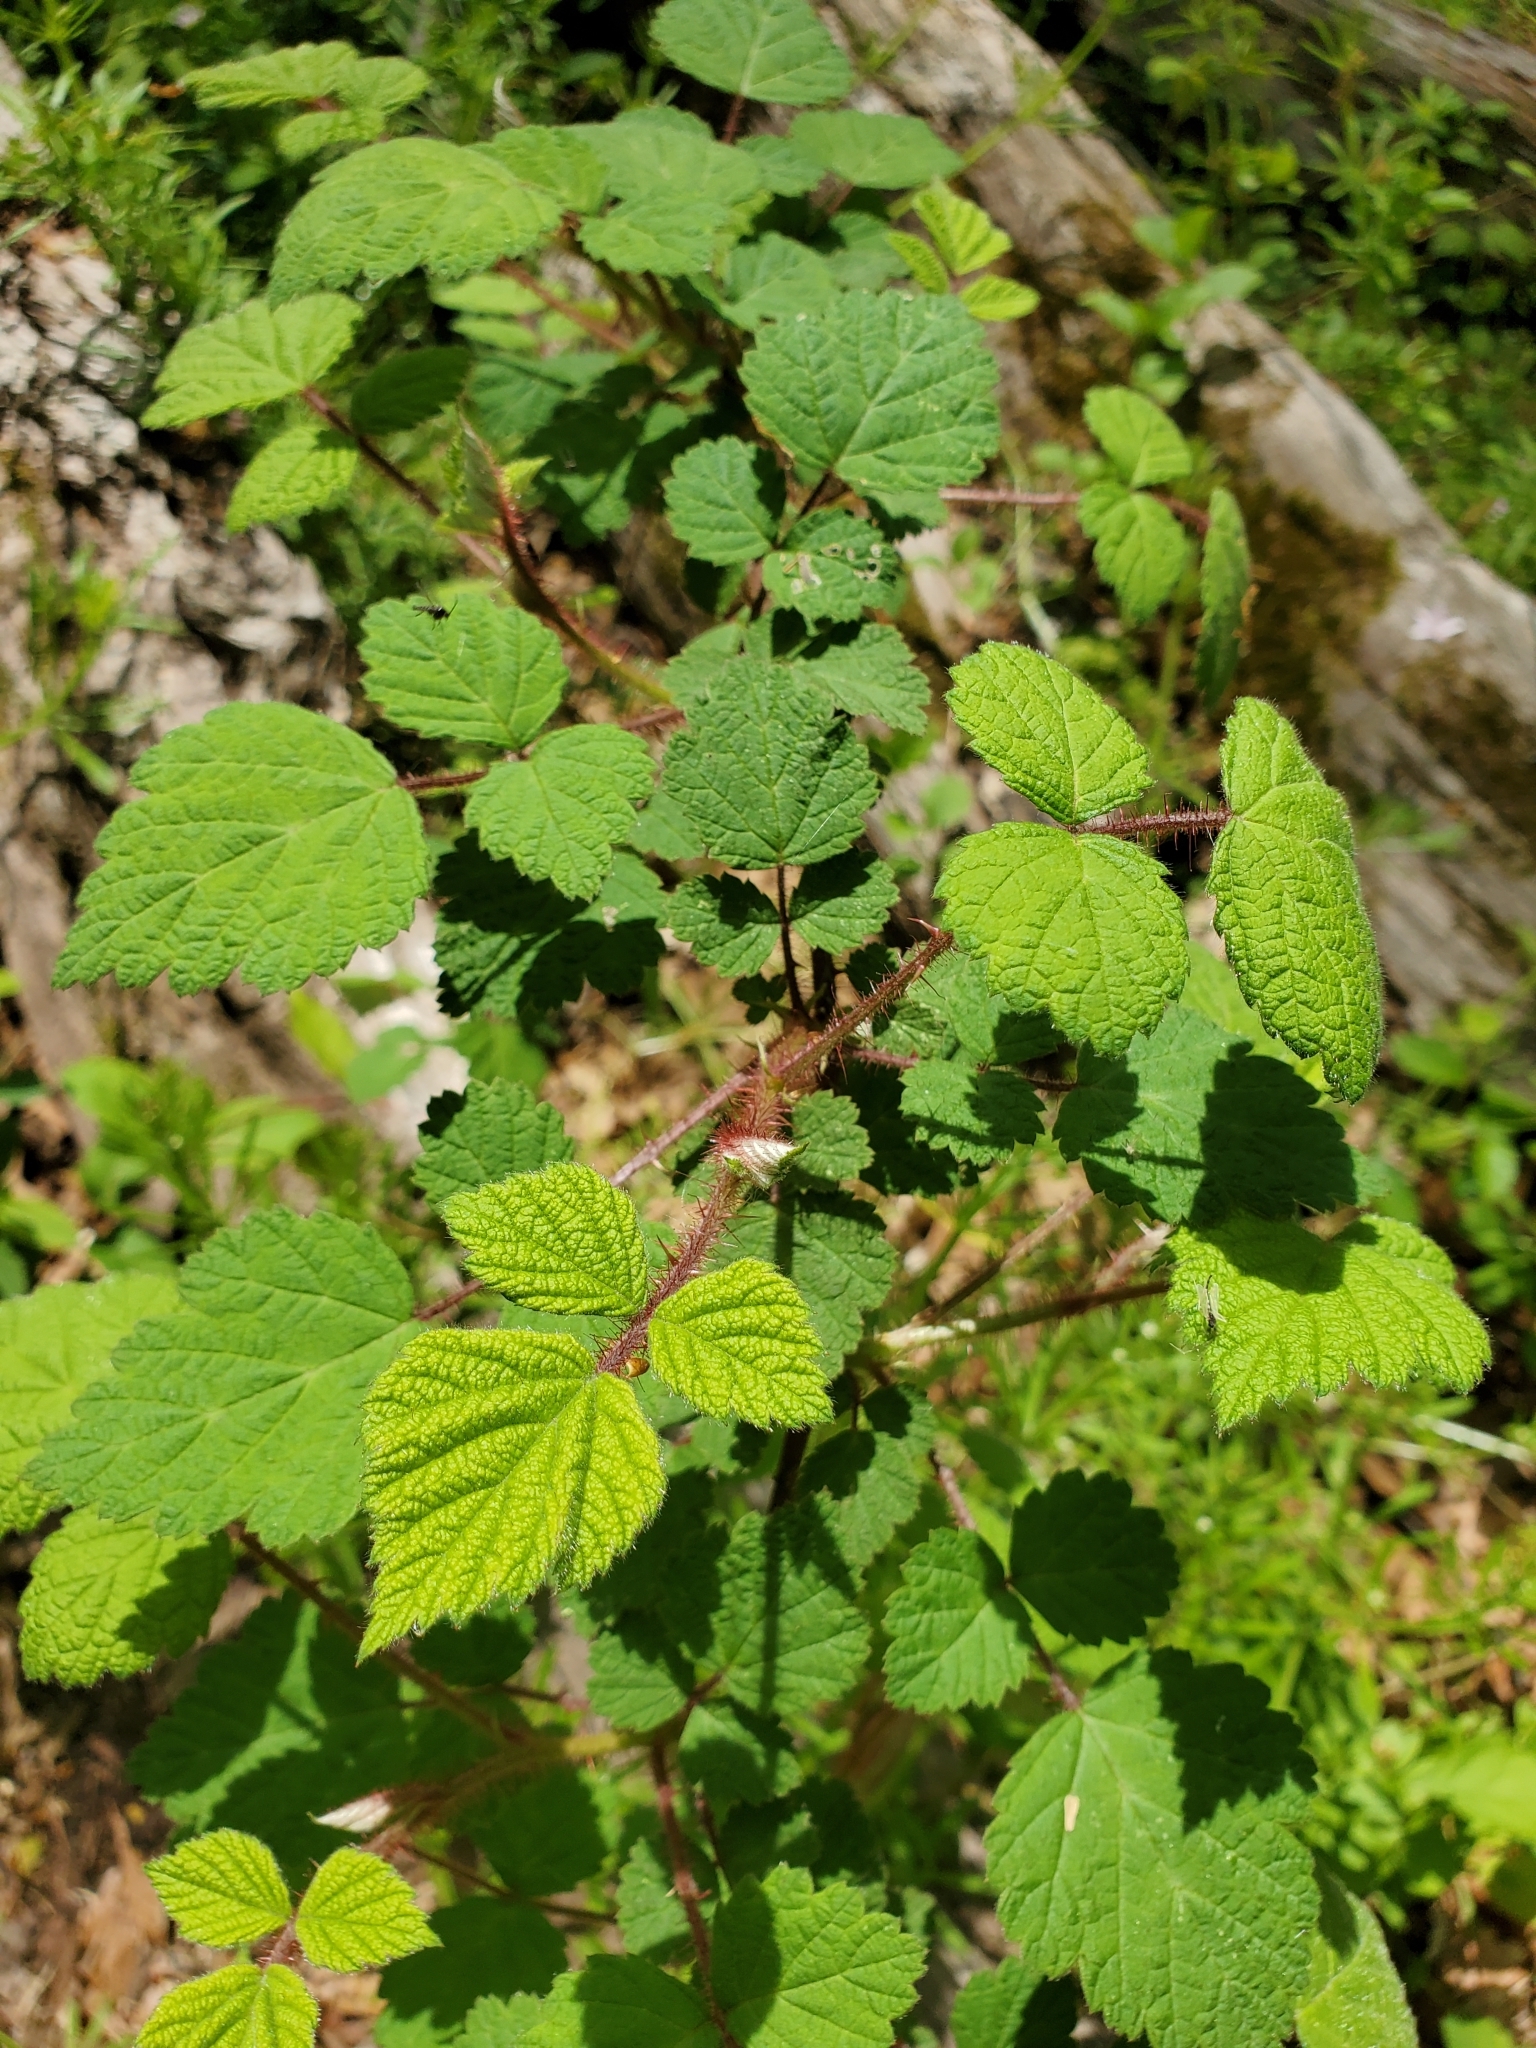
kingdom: Plantae
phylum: Tracheophyta
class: Magnoliopsida
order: Rosales
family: Rosaceae
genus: Rubus
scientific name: Rubus phoenicolasius
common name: Japanese wineberry
